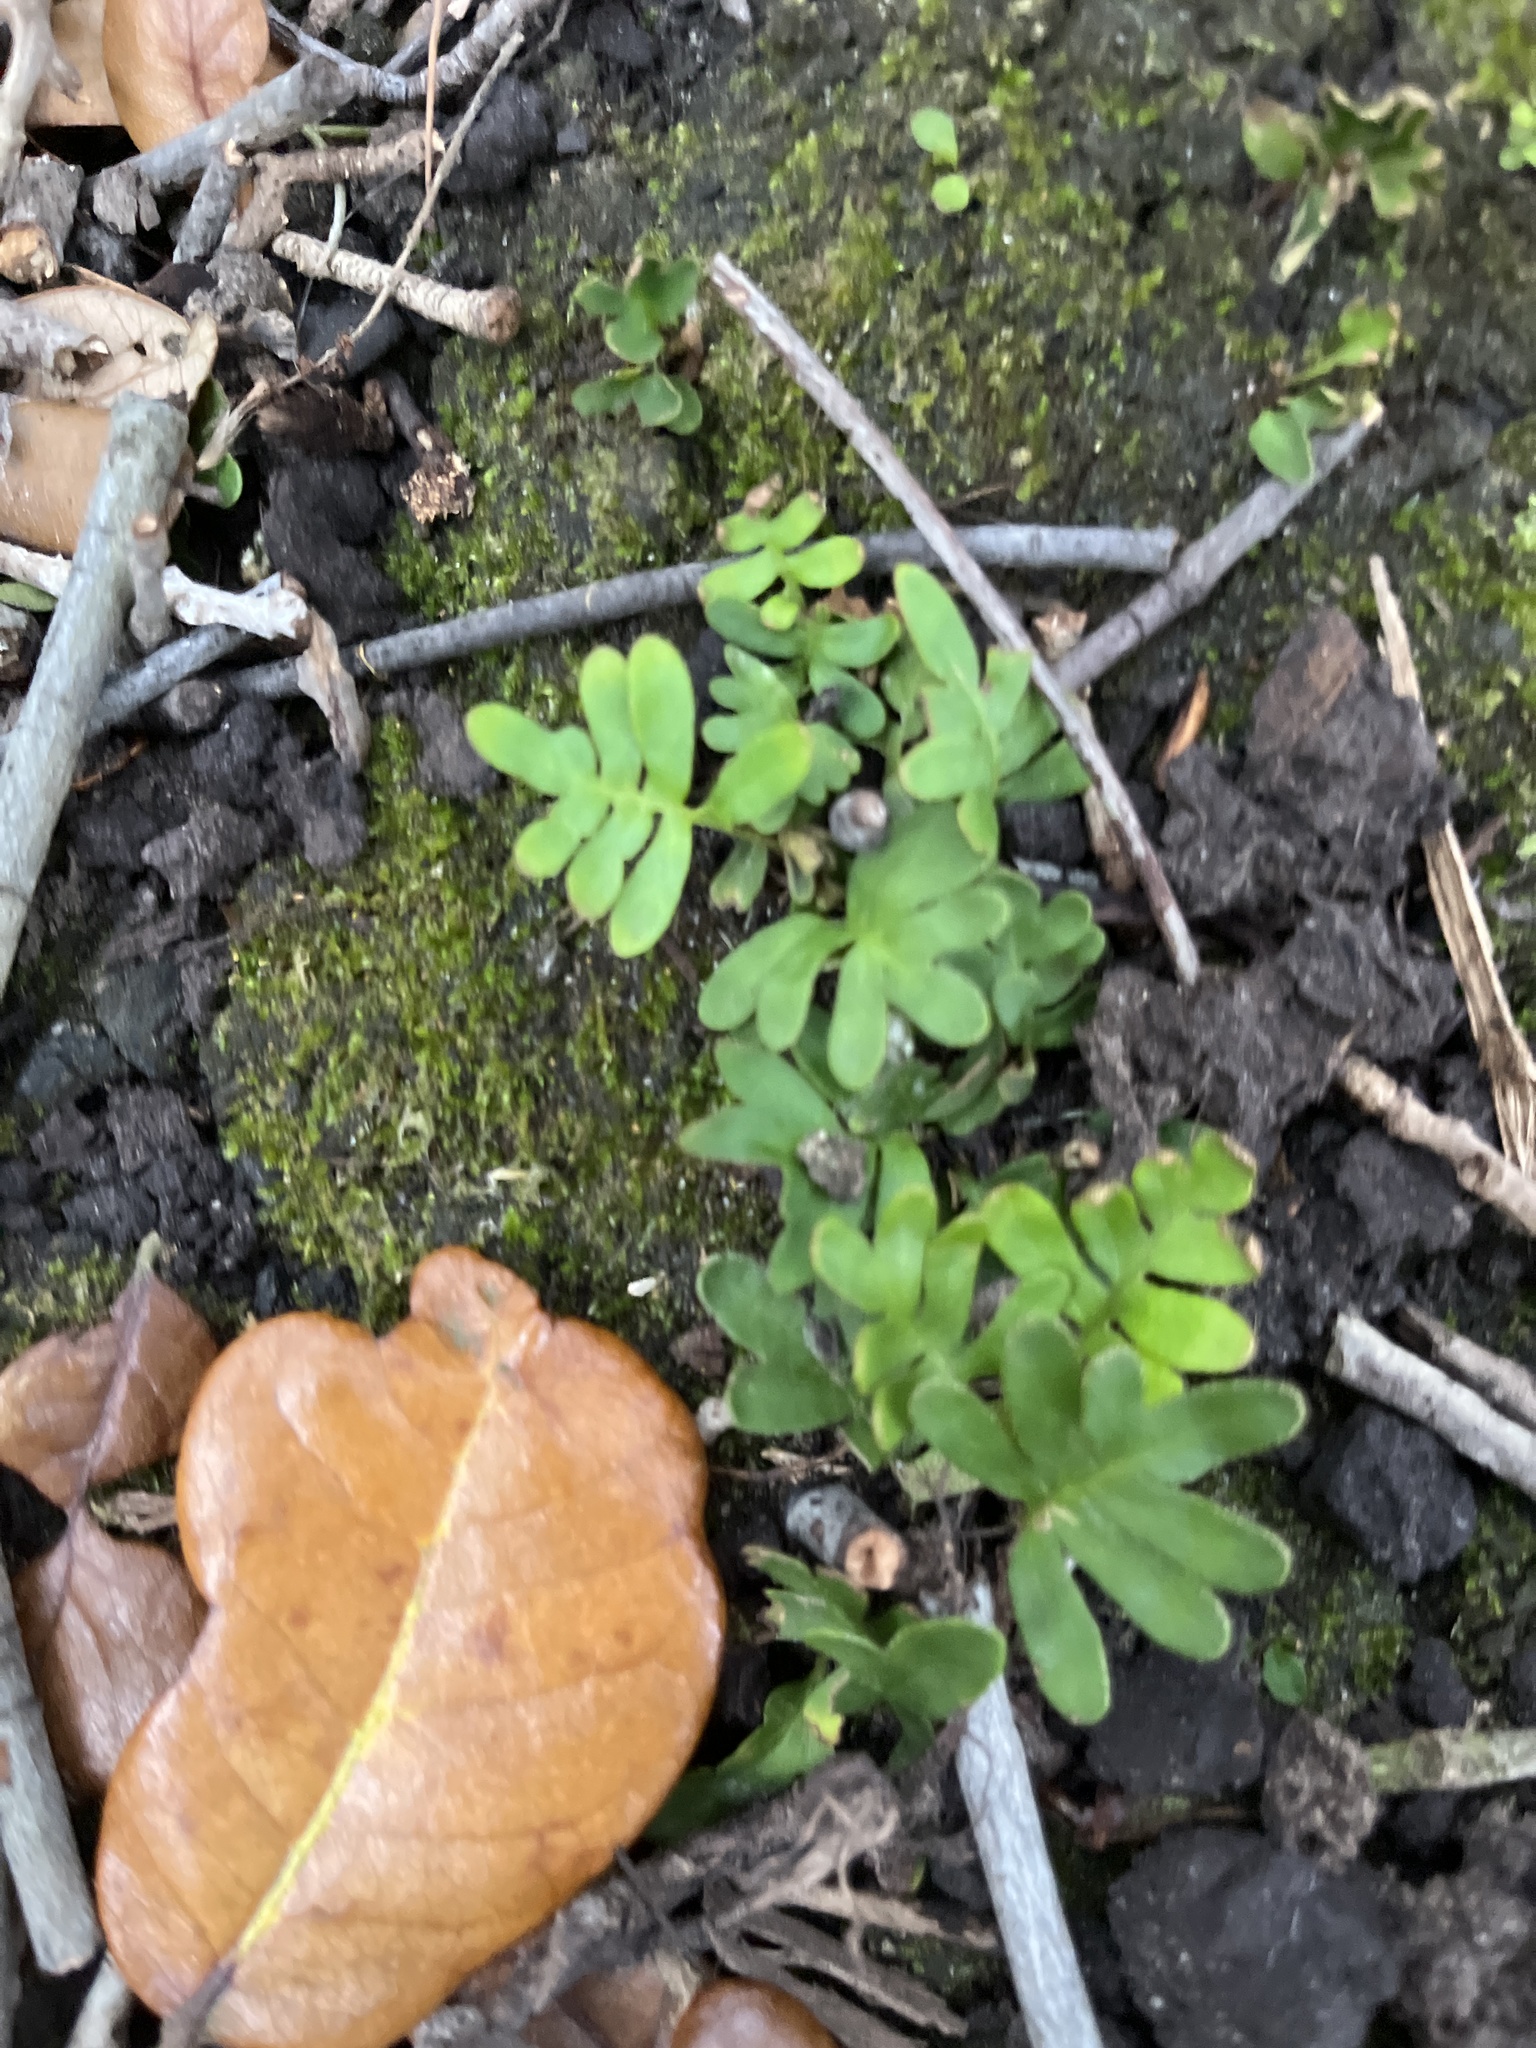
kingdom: Plantae
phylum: Tracheophyta
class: Polypodiopsida
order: Polypodiales
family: Polypodiaceae
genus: Pleopeltis
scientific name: Pleopeltis michauxiana
